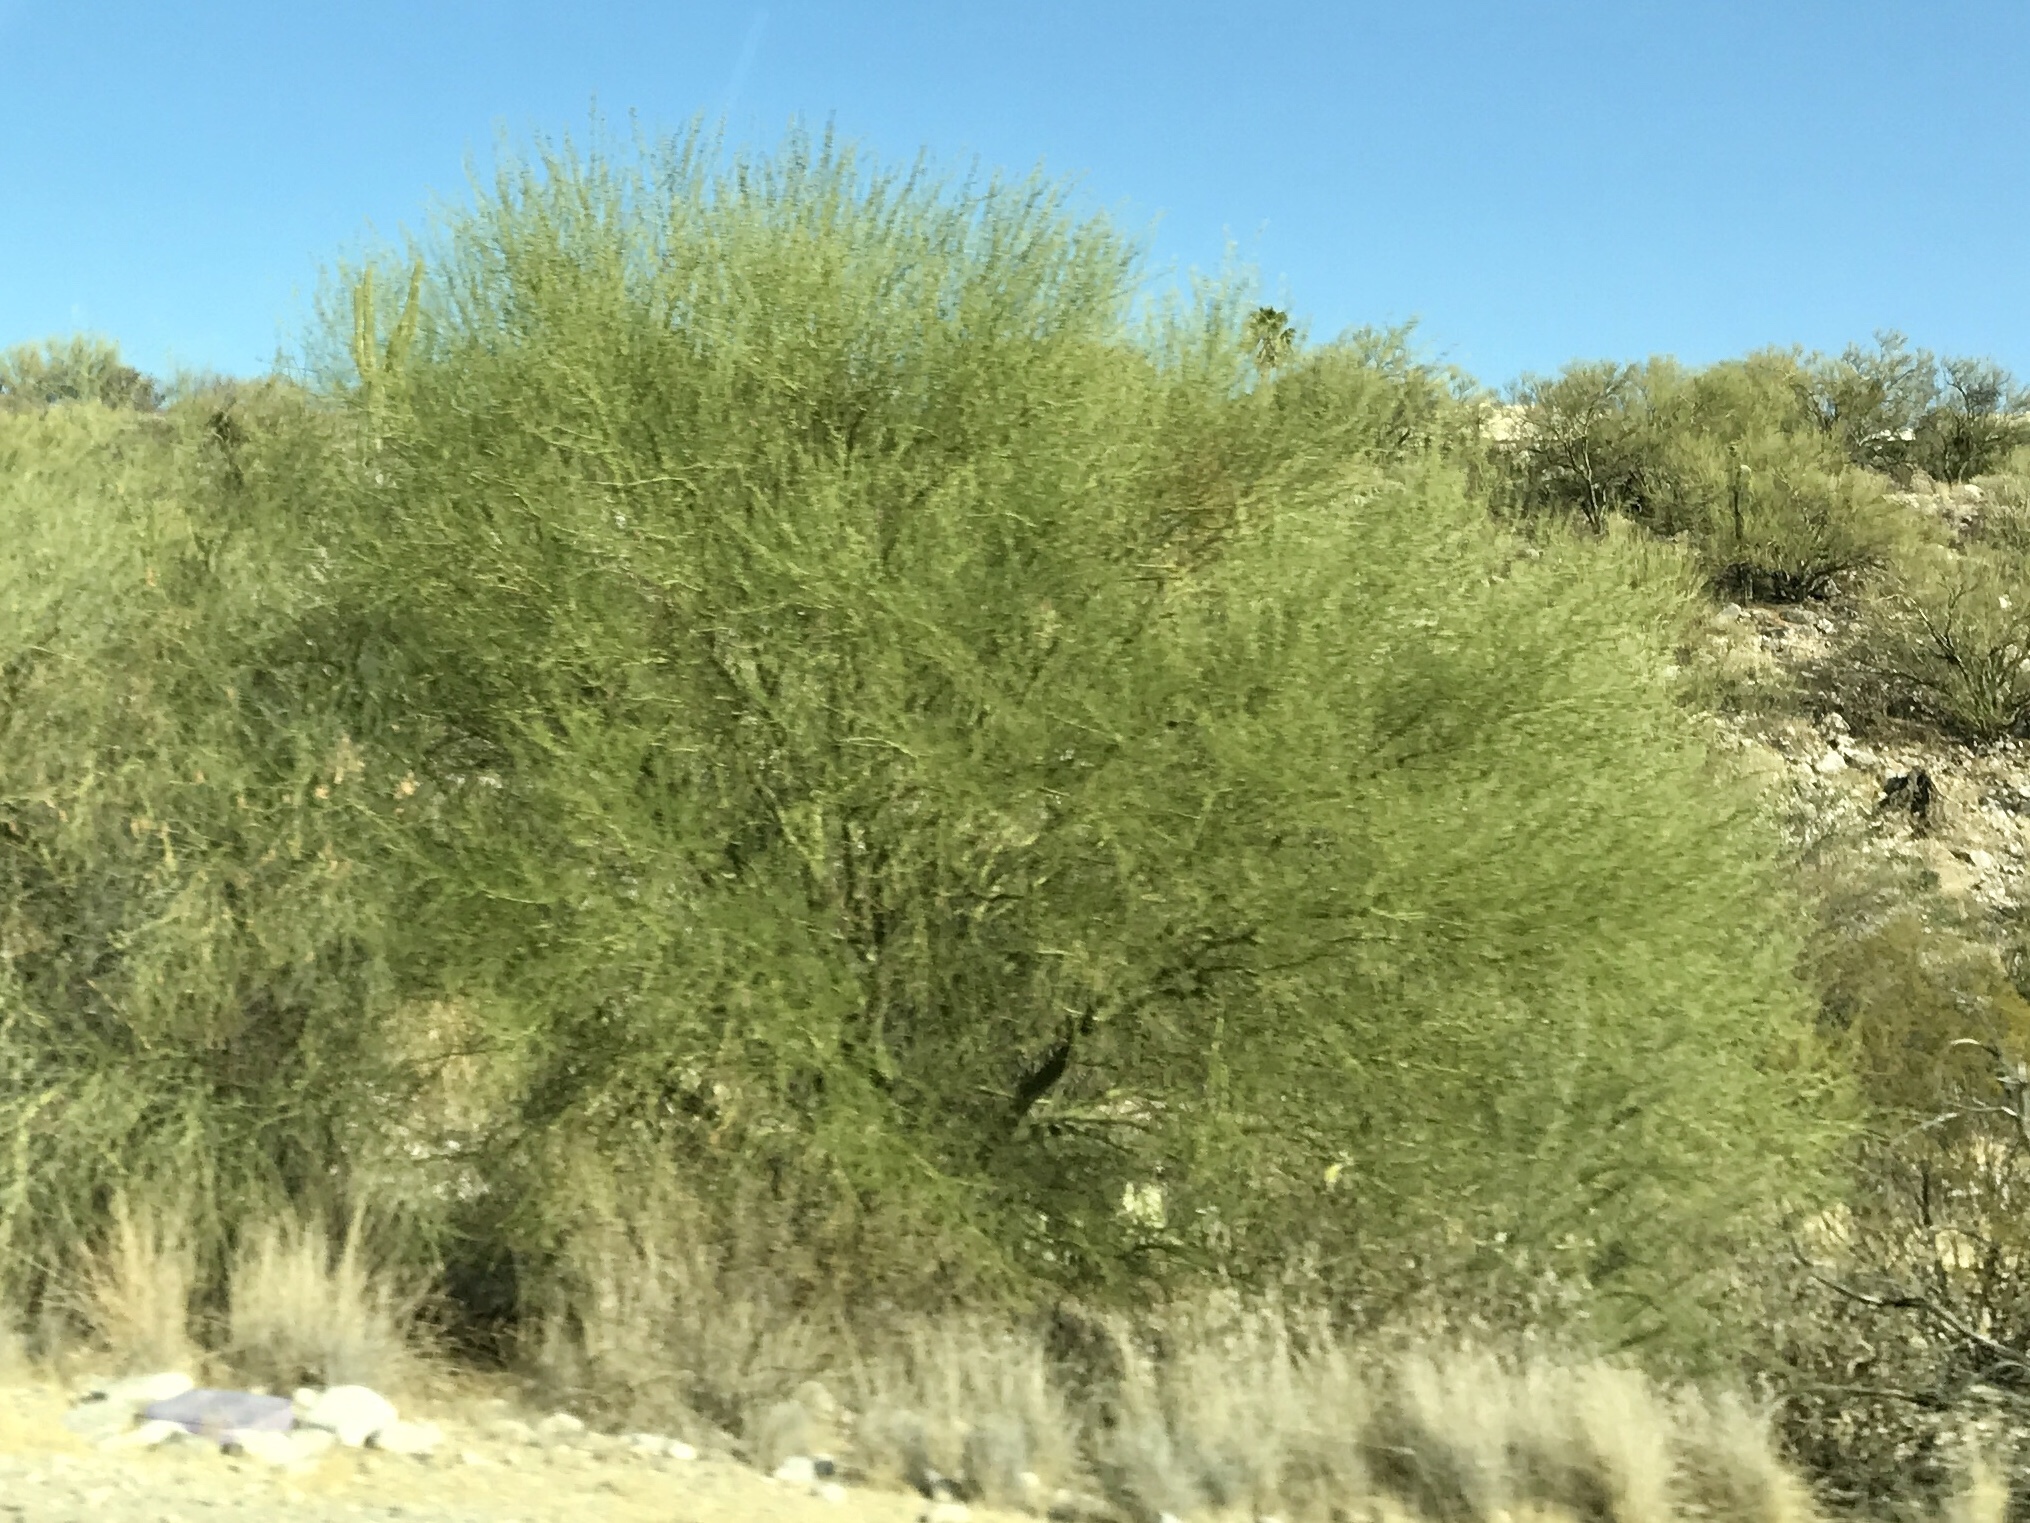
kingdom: Plantae
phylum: Tracheophyta
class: Magnoliopsida
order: Fabales
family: Fabaceae
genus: Parkinsonia
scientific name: Parkinsonia microphylla
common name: Yellow paloverde
